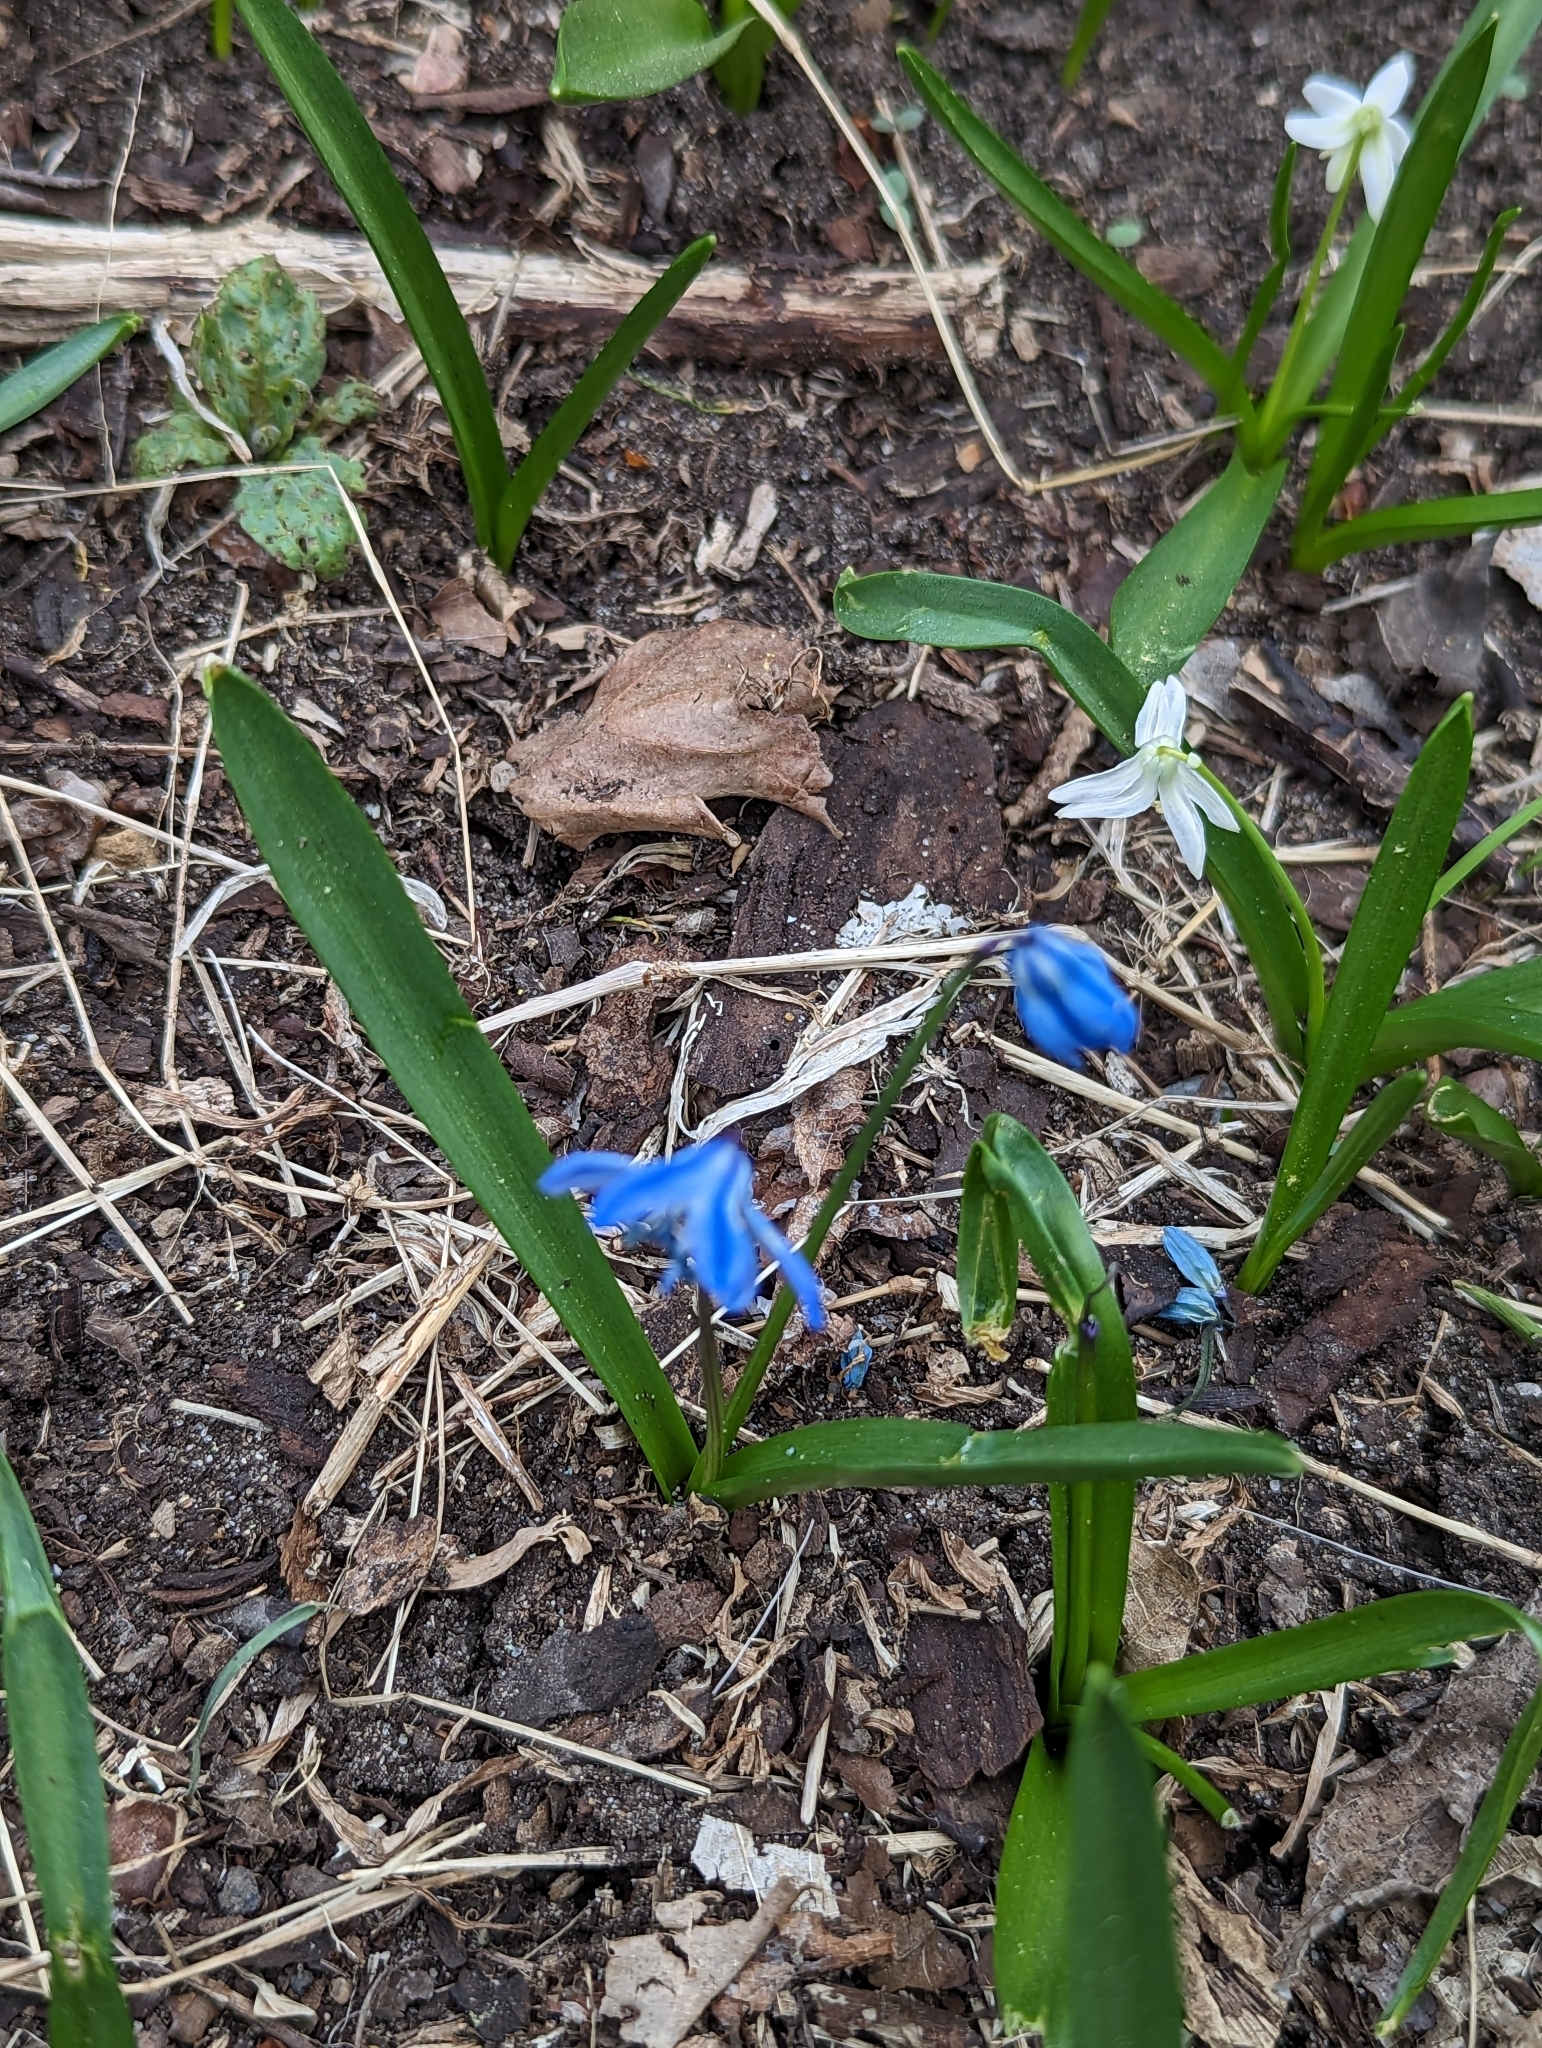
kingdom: Plantae
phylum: Tracheophyta
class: Liliopsida
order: Asparagales
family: Asparagaceae
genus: Scilla
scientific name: Scilla siberica
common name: Siberian squill
